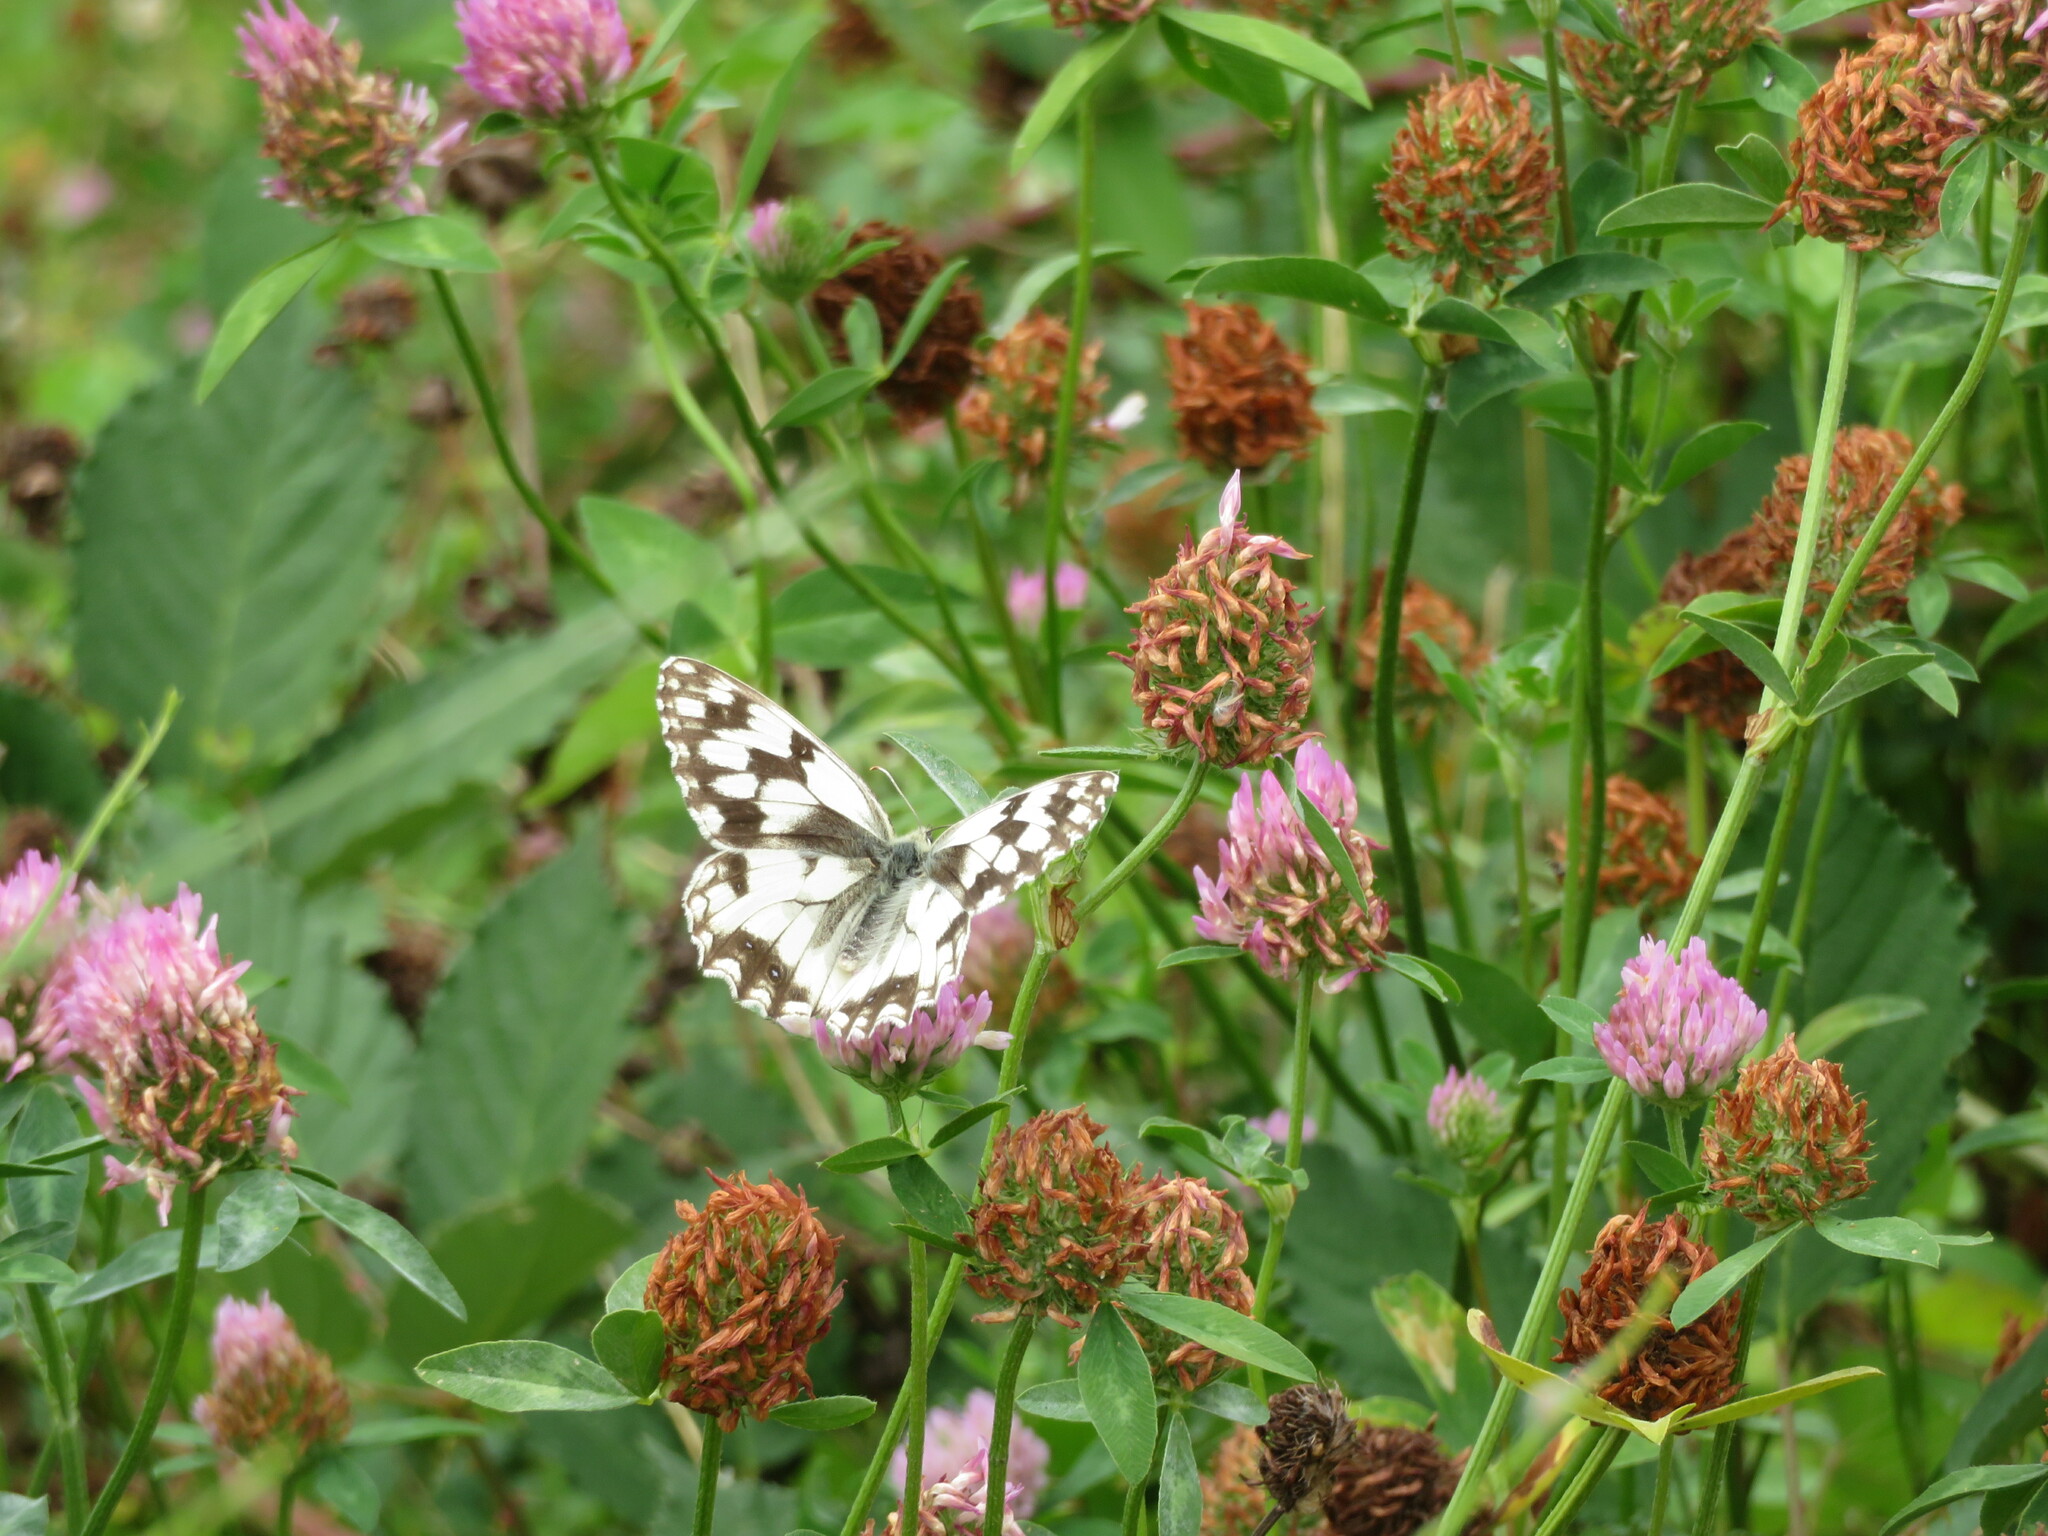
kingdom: Animalia
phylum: Arthropoda
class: Insecta
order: Lepidoptera
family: Nymphalidae
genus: Melanargia
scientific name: Melanargia lachesis
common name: Iberian marbled white
